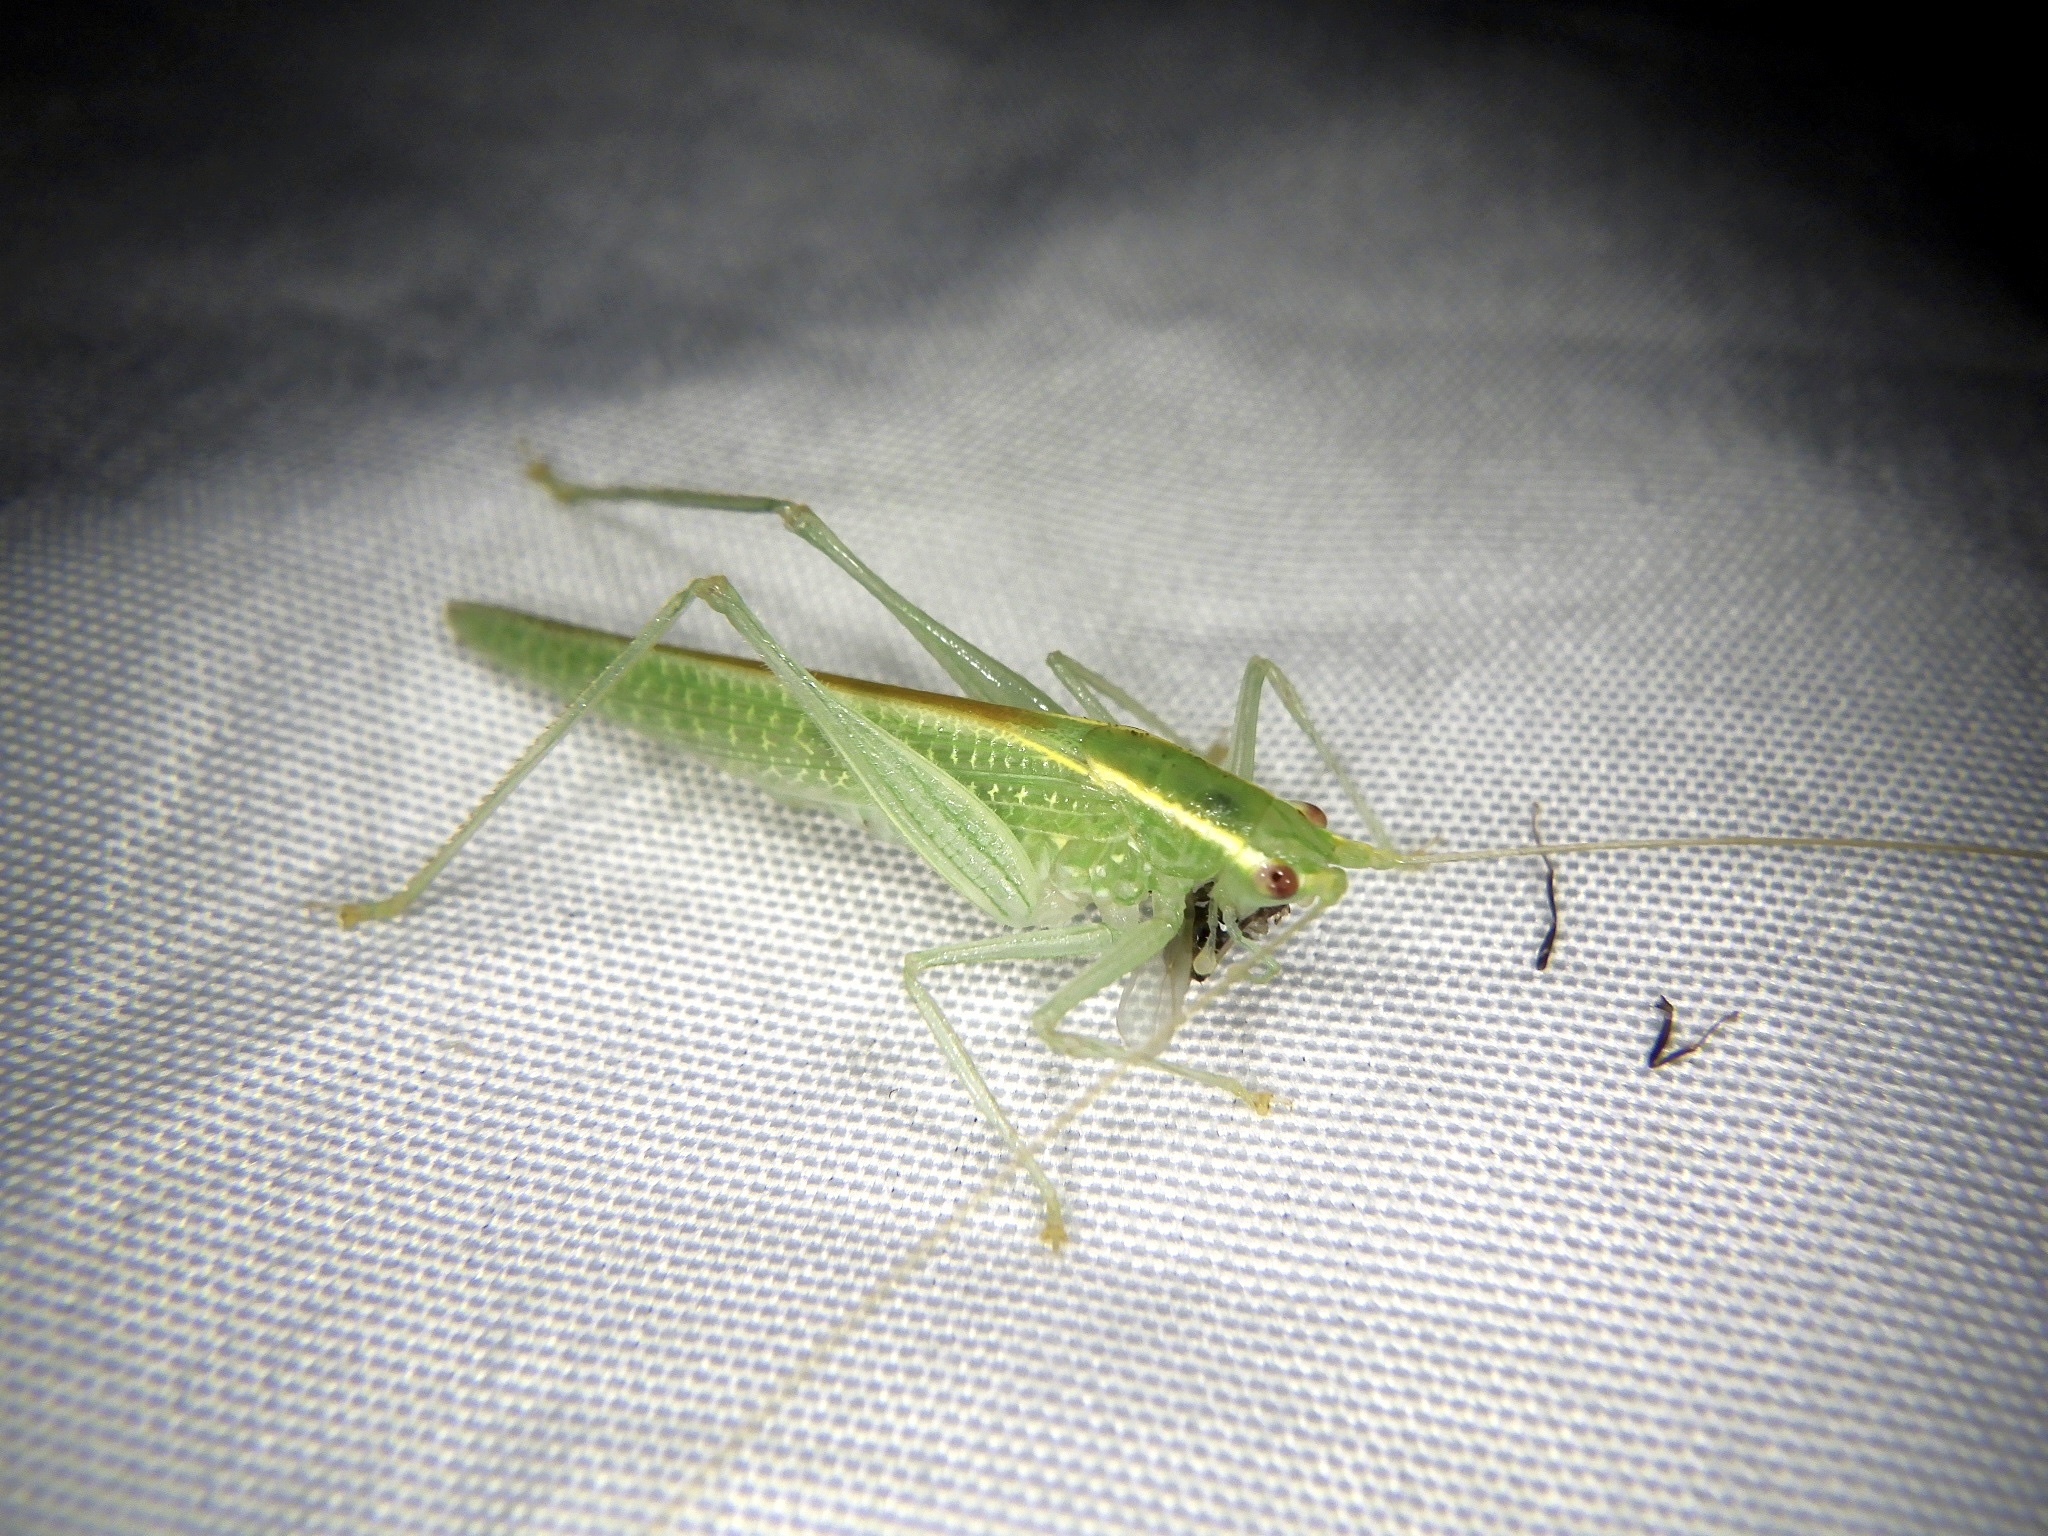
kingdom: Animalia
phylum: Arthropoda
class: Insecta
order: Orthoptera
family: Tettigoniidae
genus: Leptoteratura
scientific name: Leptoteratura albicorne
